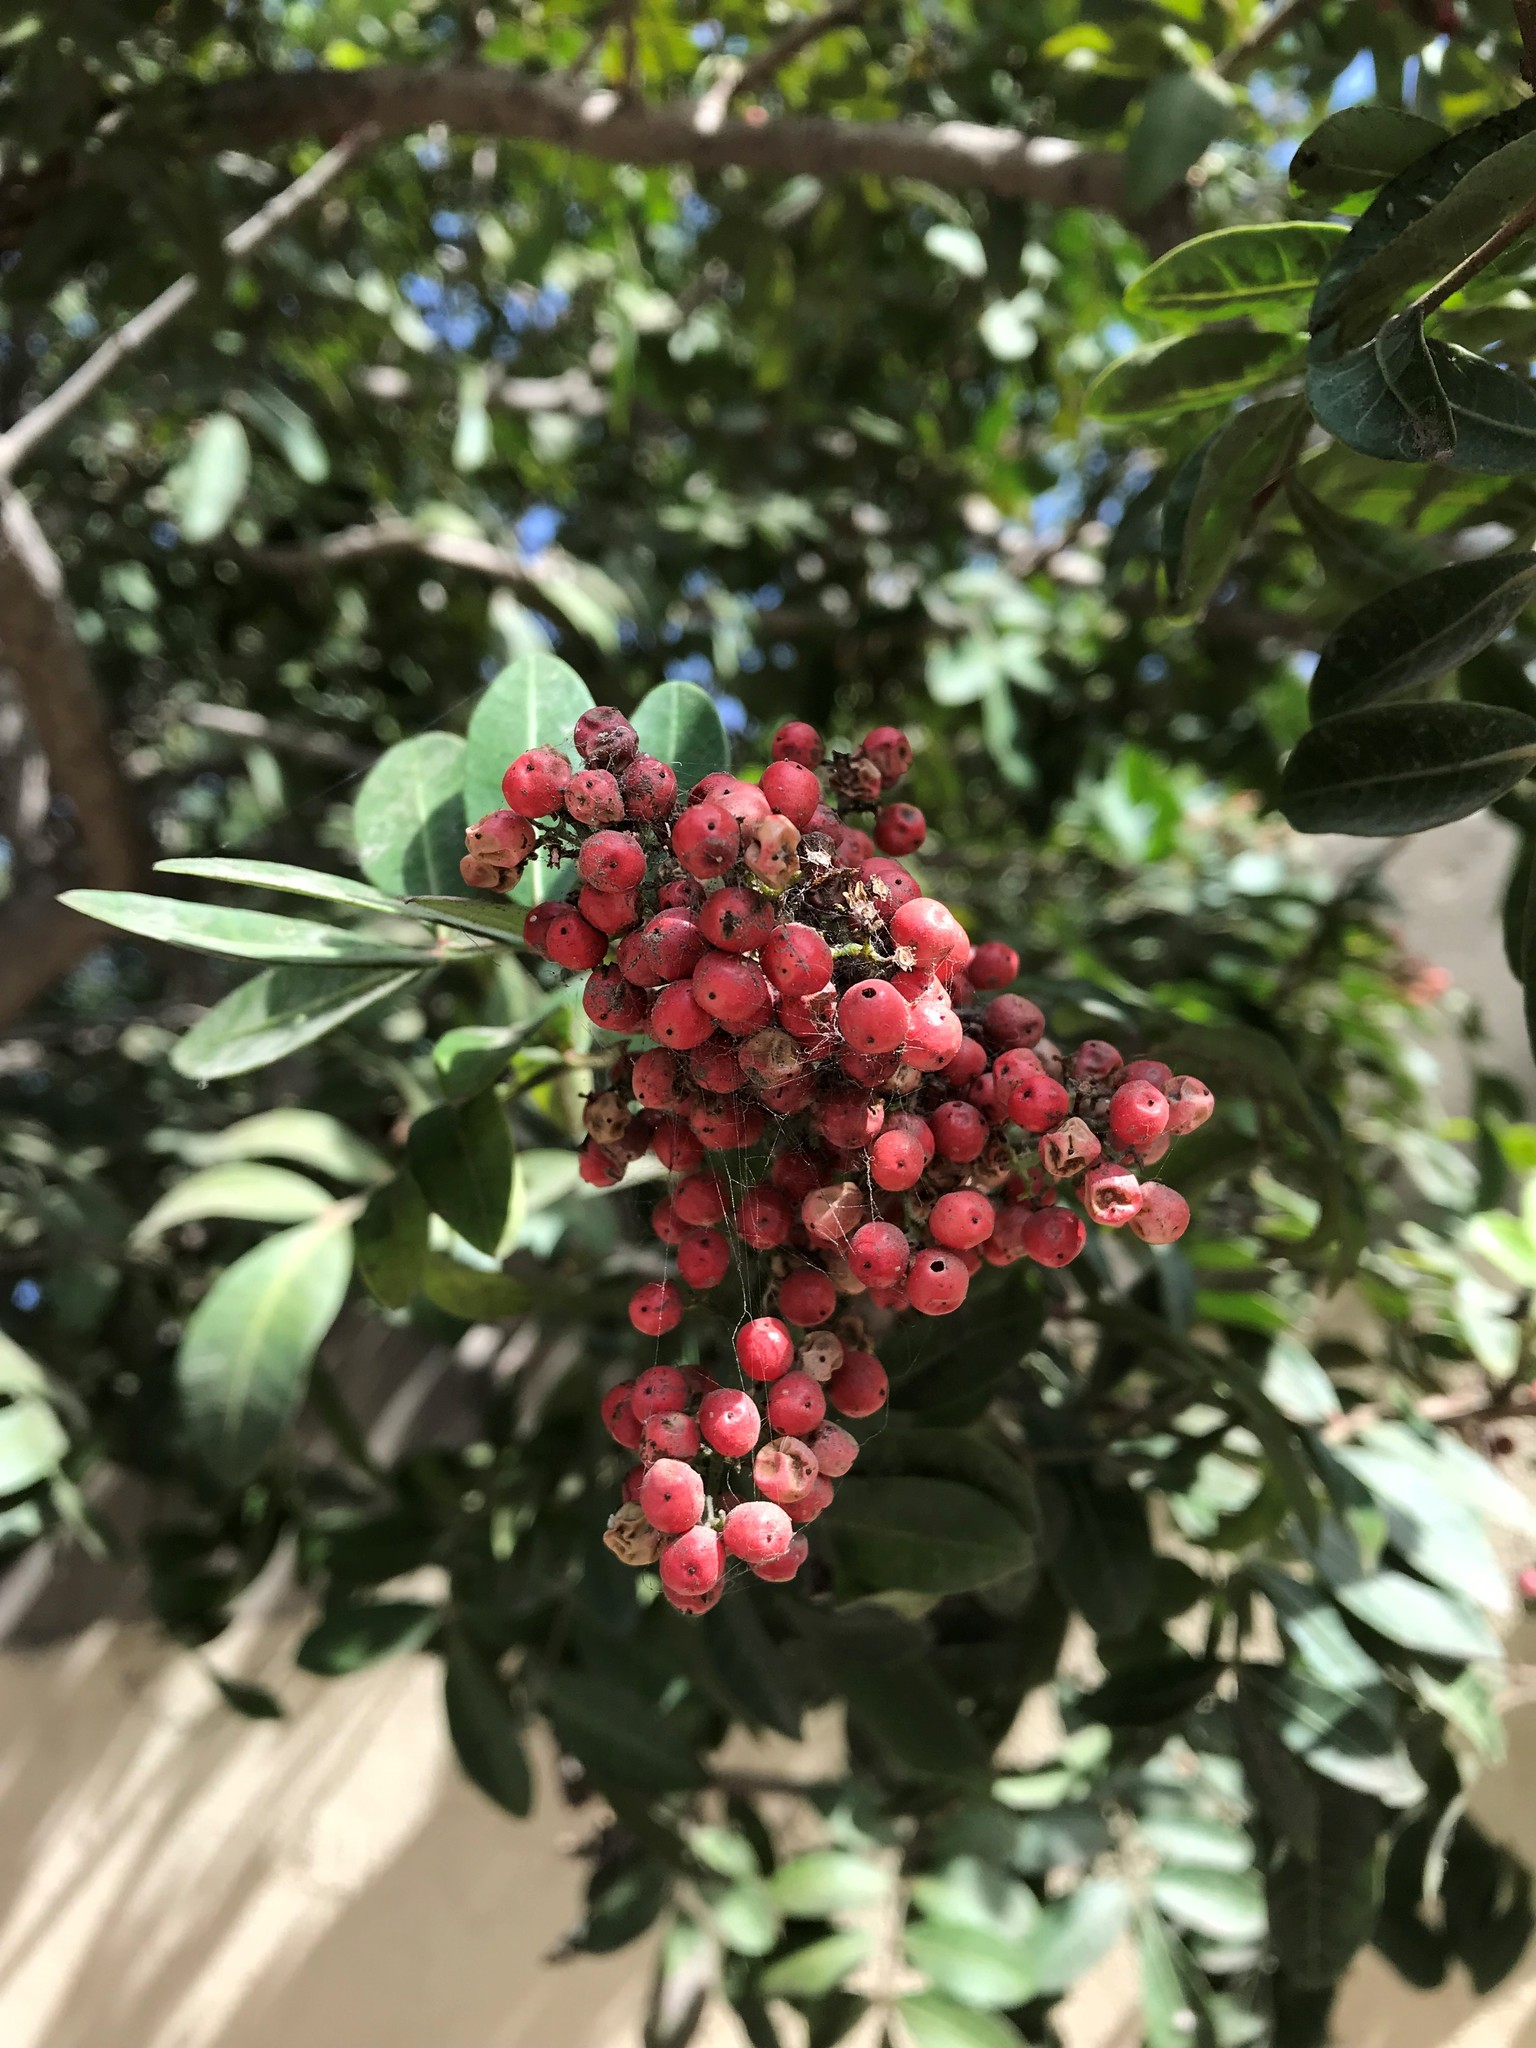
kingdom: Plantae
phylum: Tracheophyta
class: Magnoliopsida
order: Sapindales
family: Anacardiaceae
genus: Pistacia
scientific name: Pistacia atlantica
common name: Mt. atlas mastic tree
